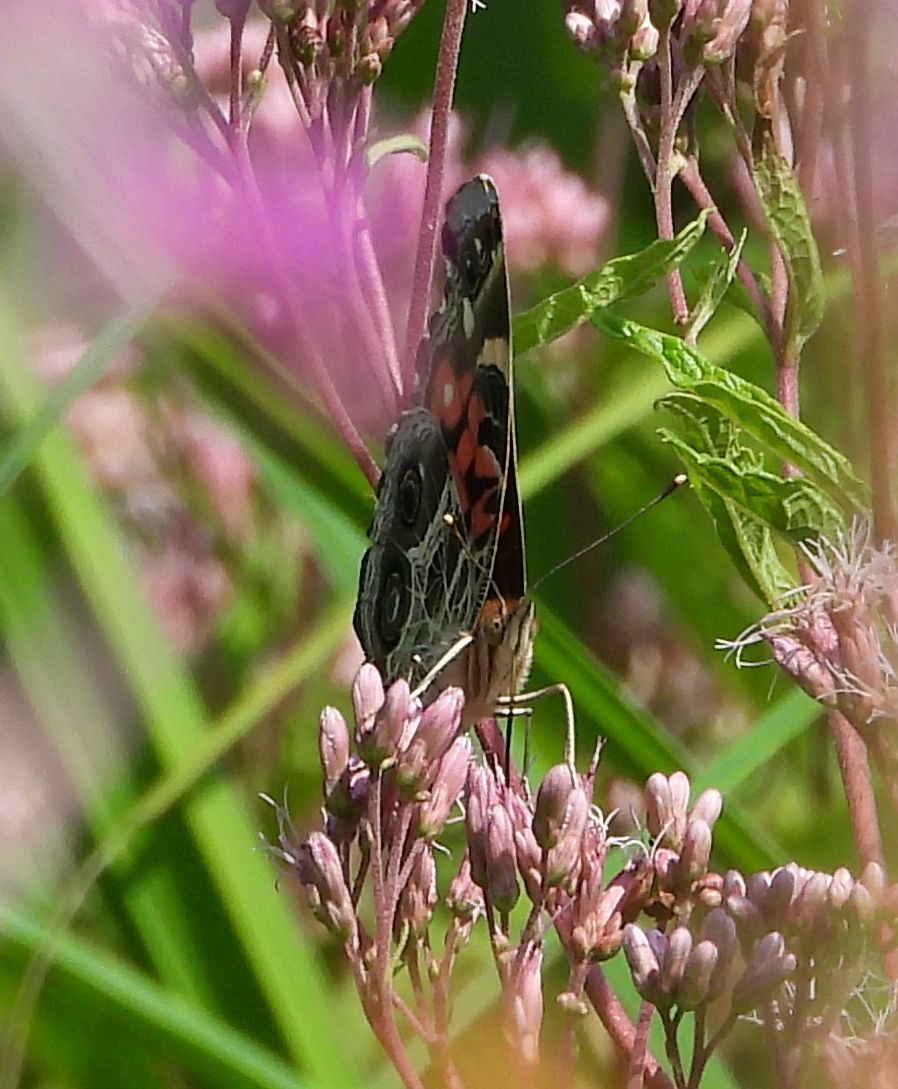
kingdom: Animalia
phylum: Arthropoda
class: Insecta
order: Lepidoptera
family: Nymphalidae
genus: Vanessa
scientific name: Vanessa virginiensis
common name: American lady
